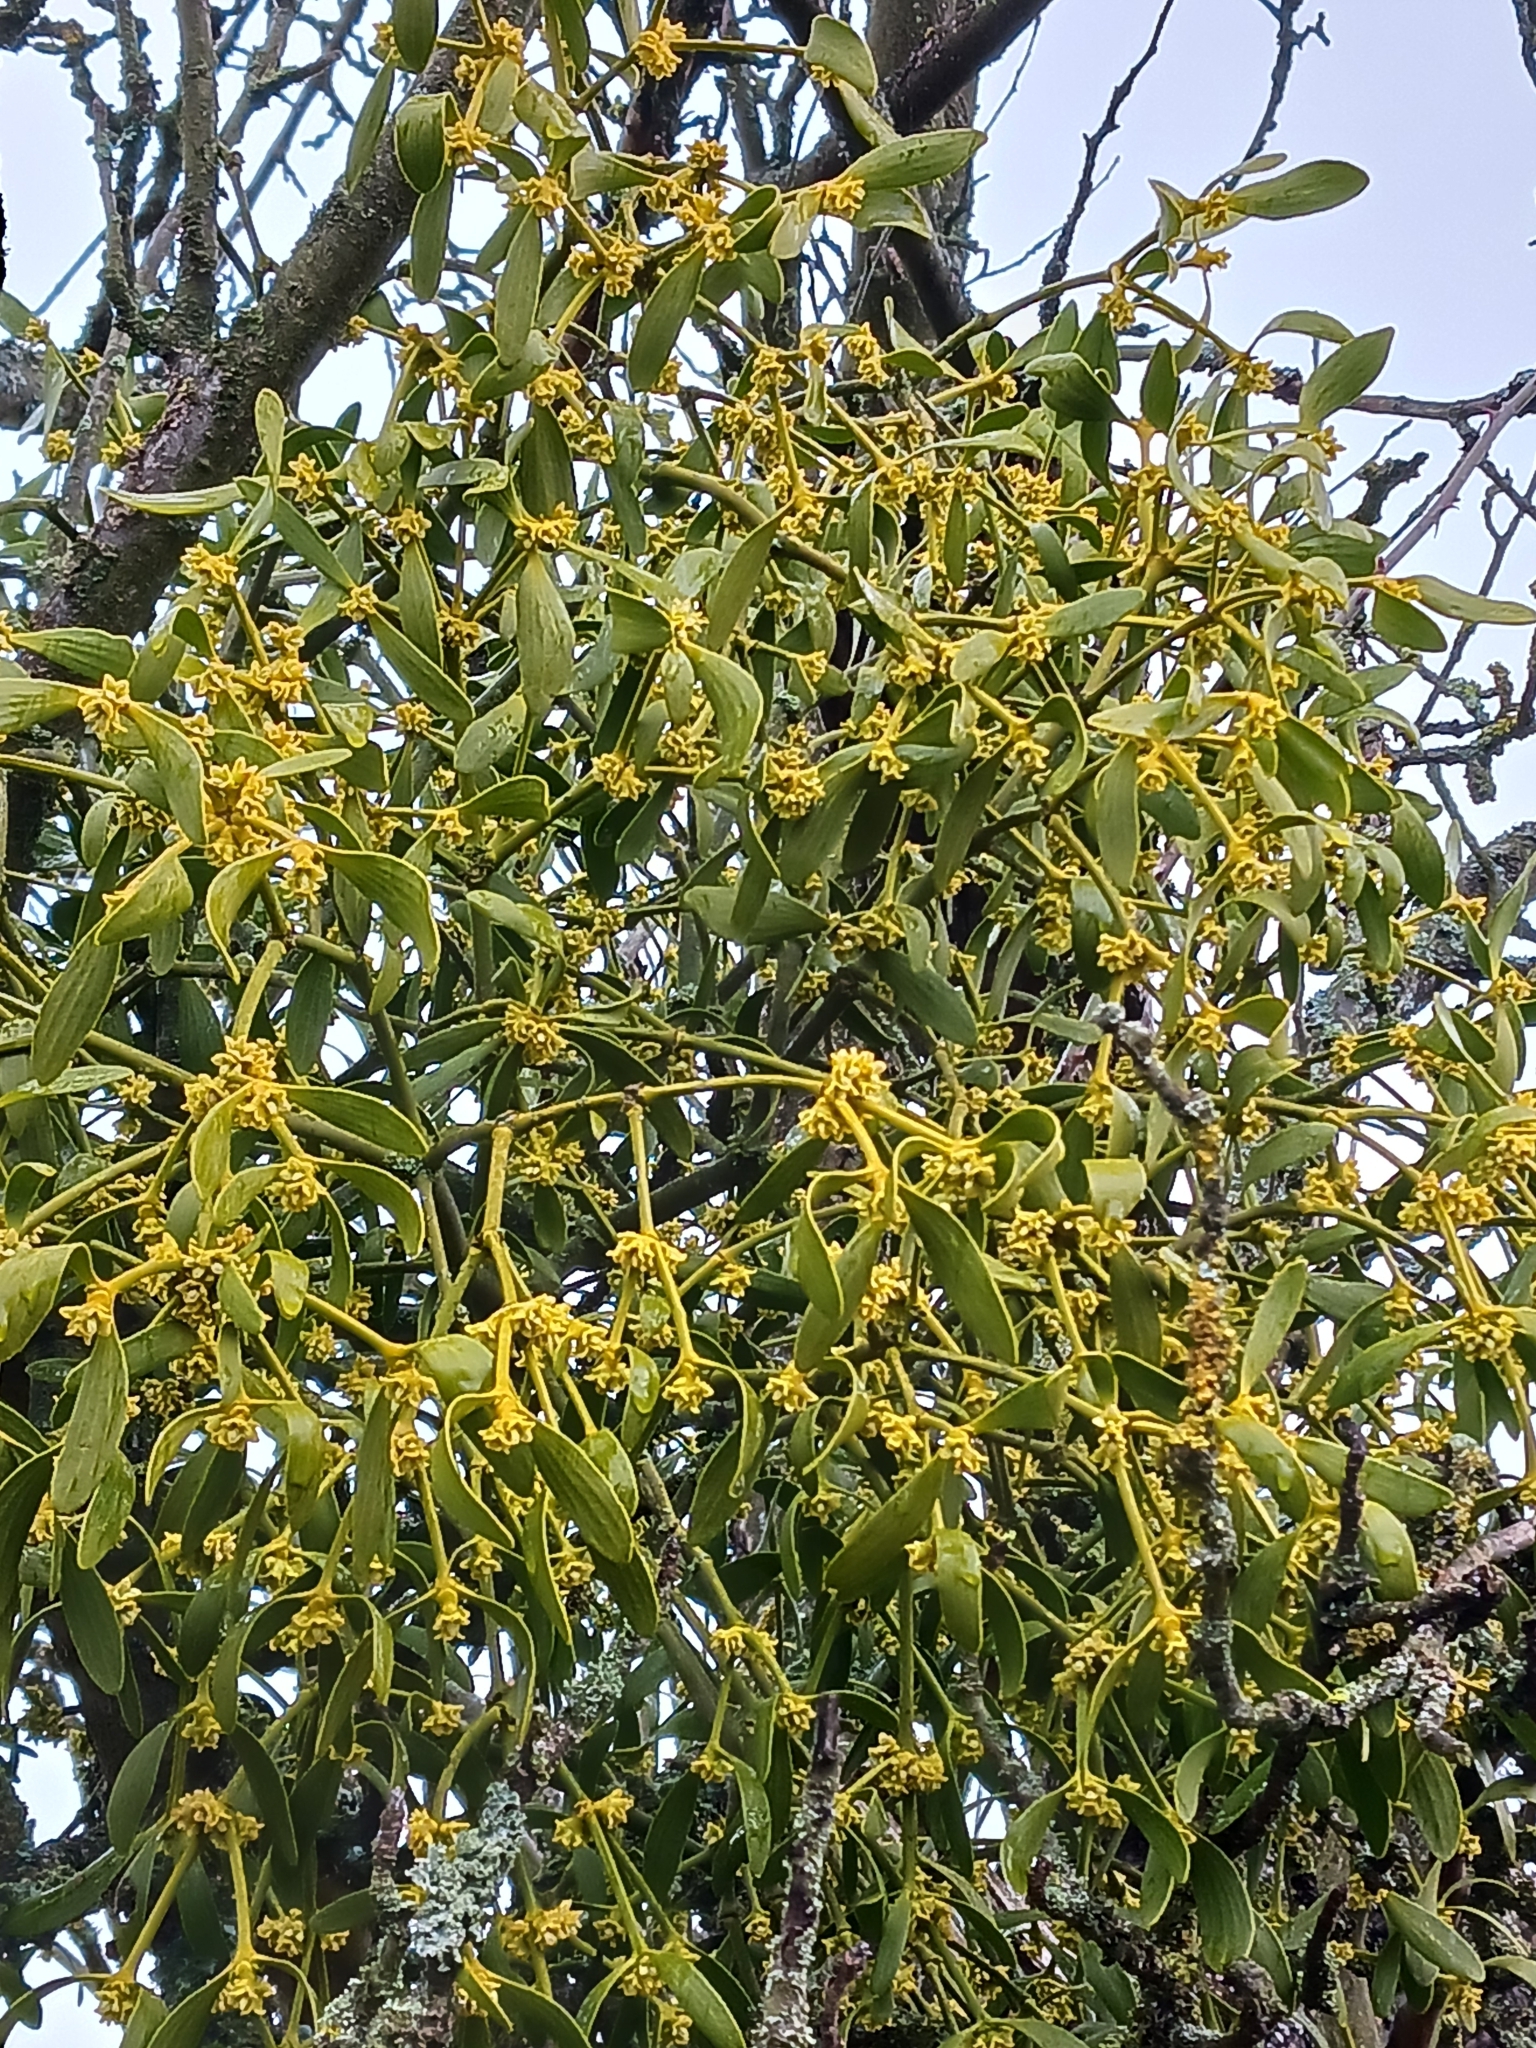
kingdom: Plantae
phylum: Tracheophyta
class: Magnoliopsida
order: Santalales
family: Viscaceae
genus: Viscum
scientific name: Viscum album
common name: Mistletoe
